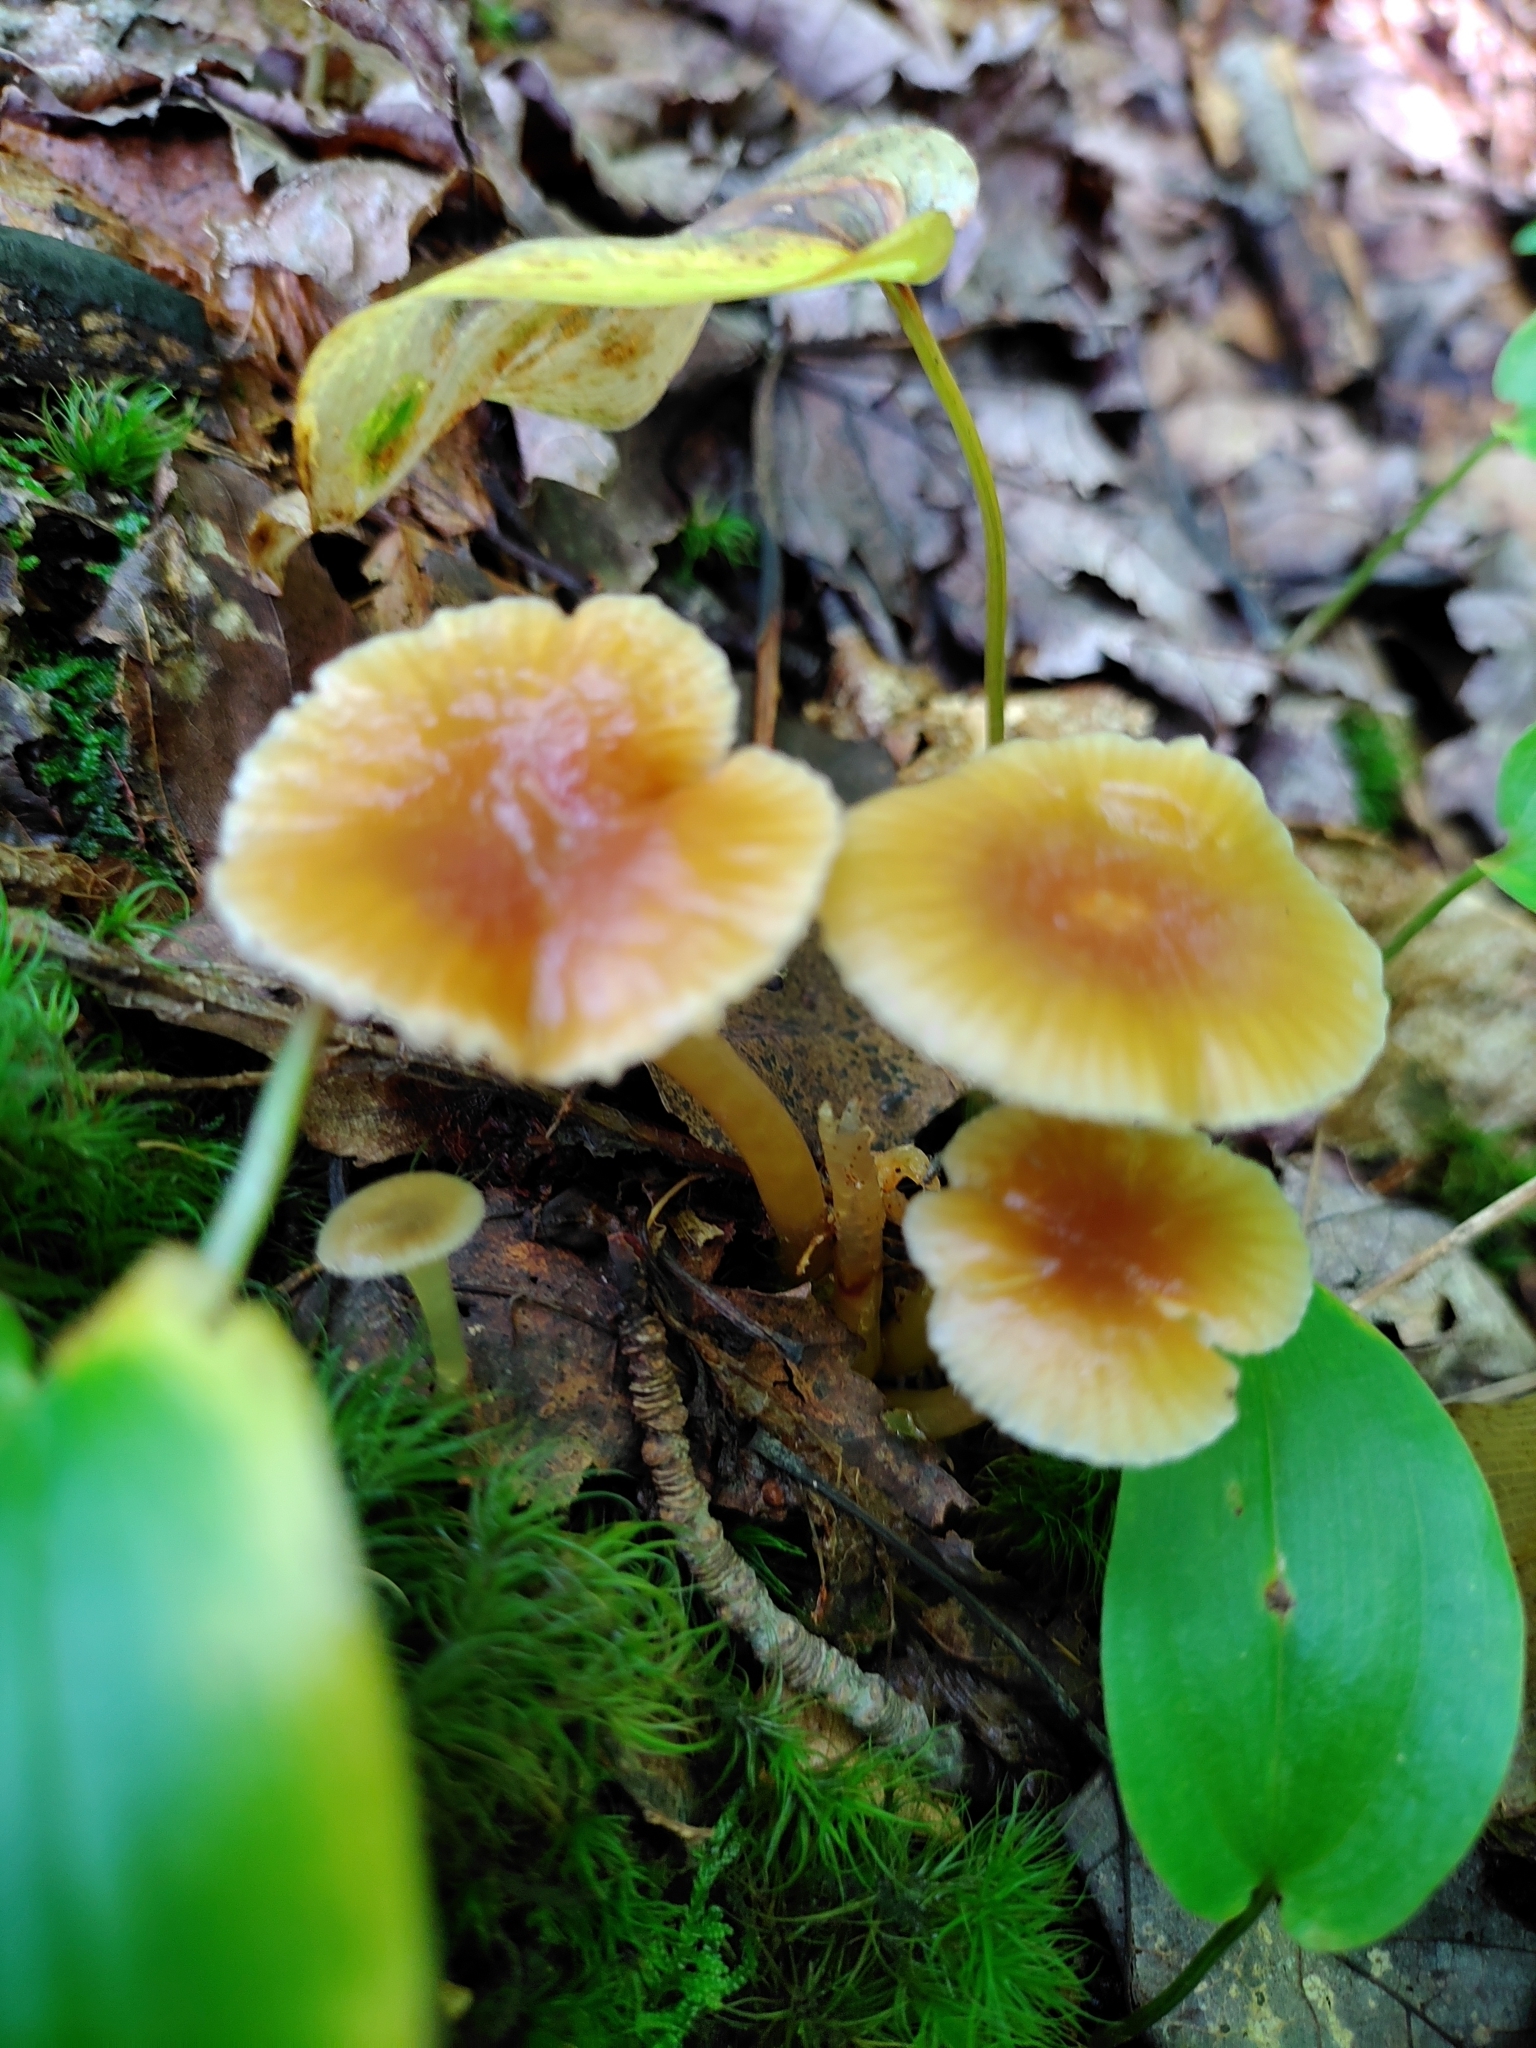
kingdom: Fungi
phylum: Basidiomycota
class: Agaricomycetes
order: Agaricales
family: Hygrophoraceae
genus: Gliophorus
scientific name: Gliophorus laetus
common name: Heath waxcap
